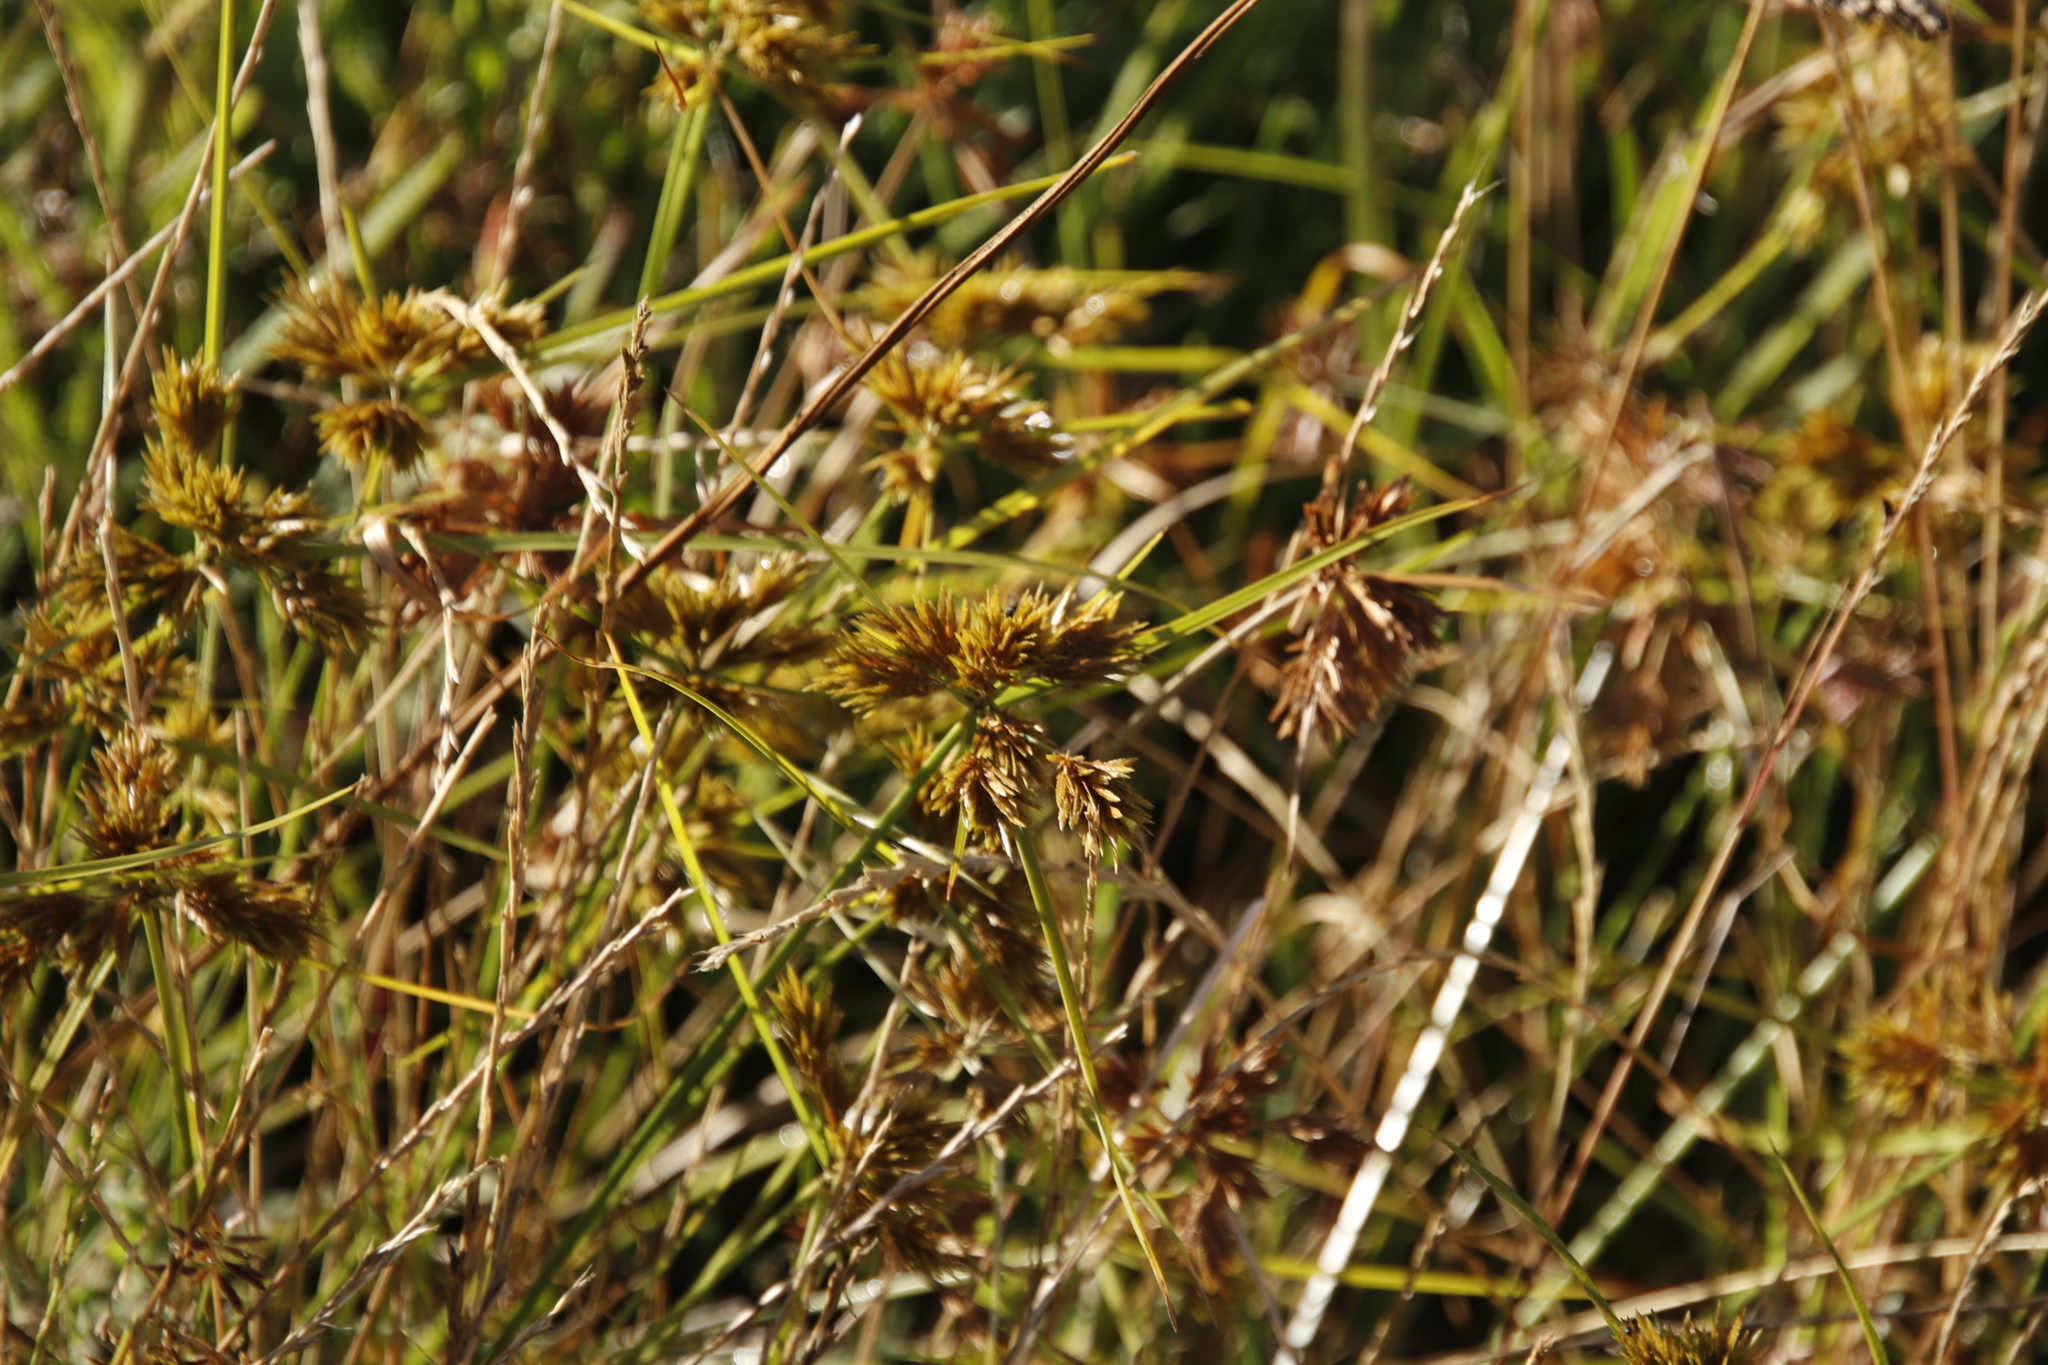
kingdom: Plantae
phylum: Tracheophyta
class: Liliopsida
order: Poales
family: Cyperaceae
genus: Cyperus
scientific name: Cyperus polystachyos
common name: Bunchy flat sedge
